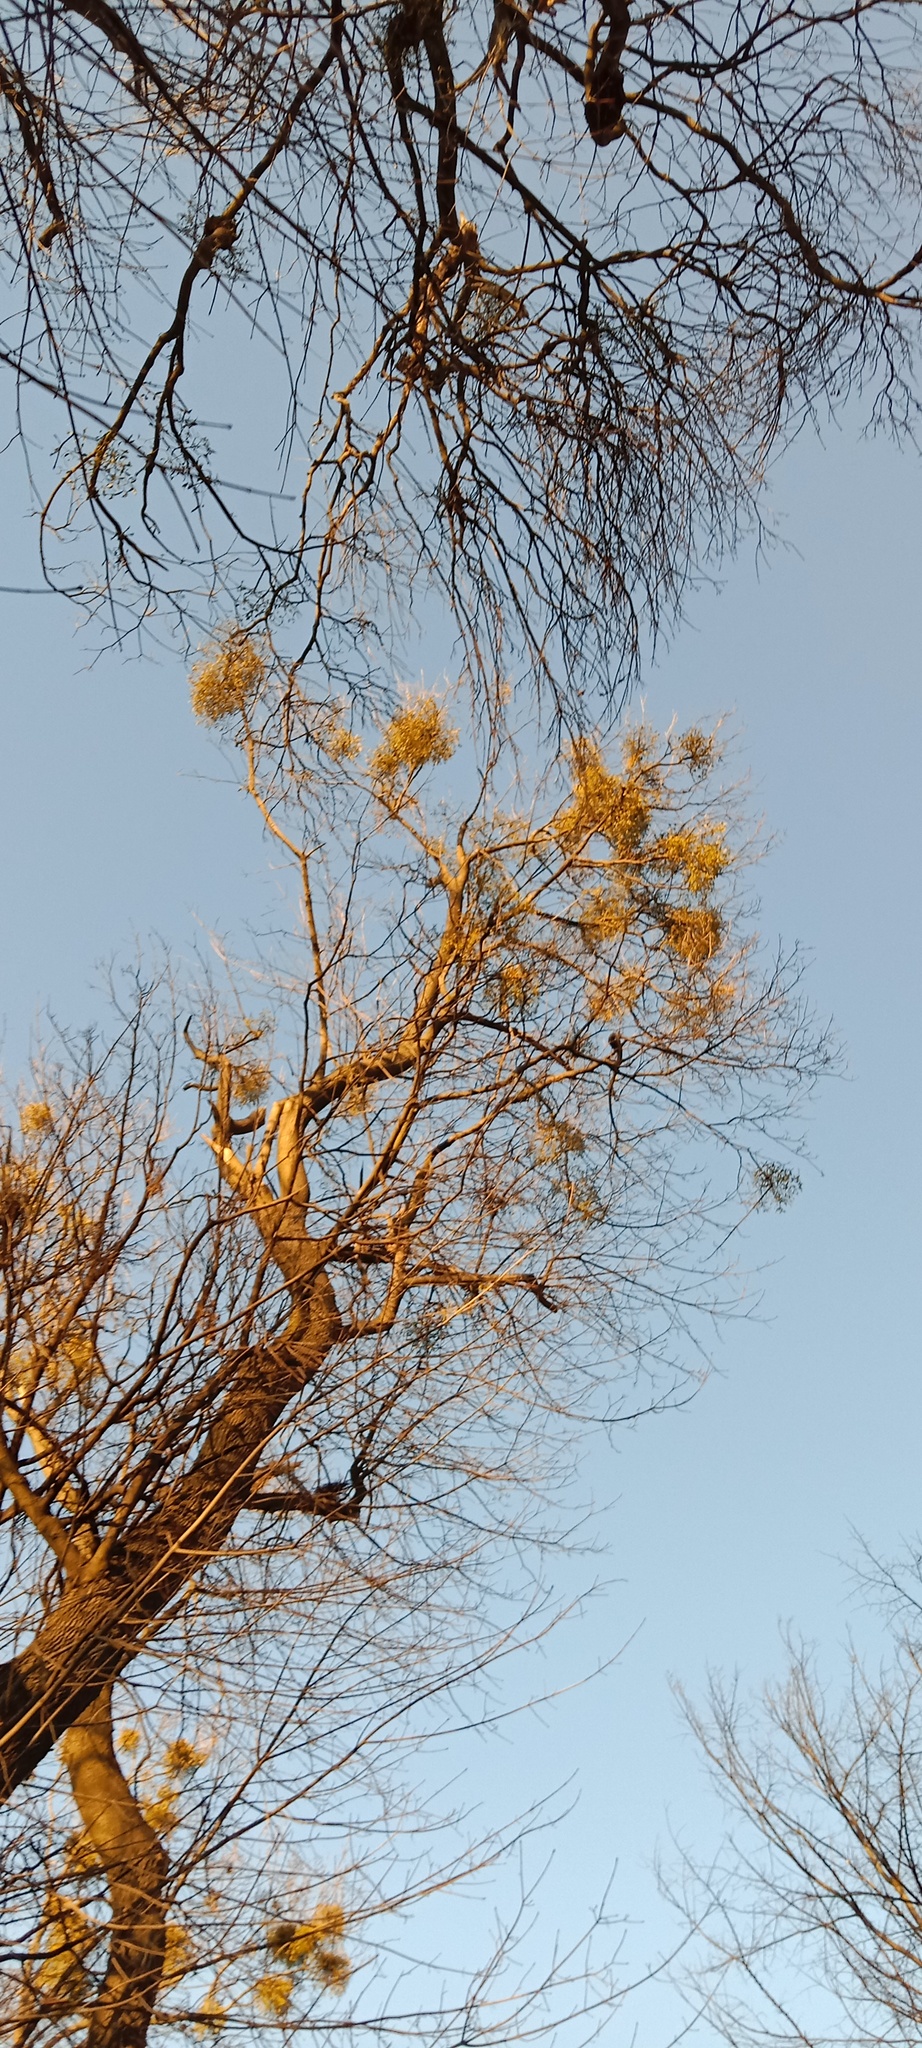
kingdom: Plantae
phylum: Tracheophyta
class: Magnoliopsida
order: Santalales
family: Viscaceae
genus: Viscum
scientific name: Viscum album
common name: Mistletoe
